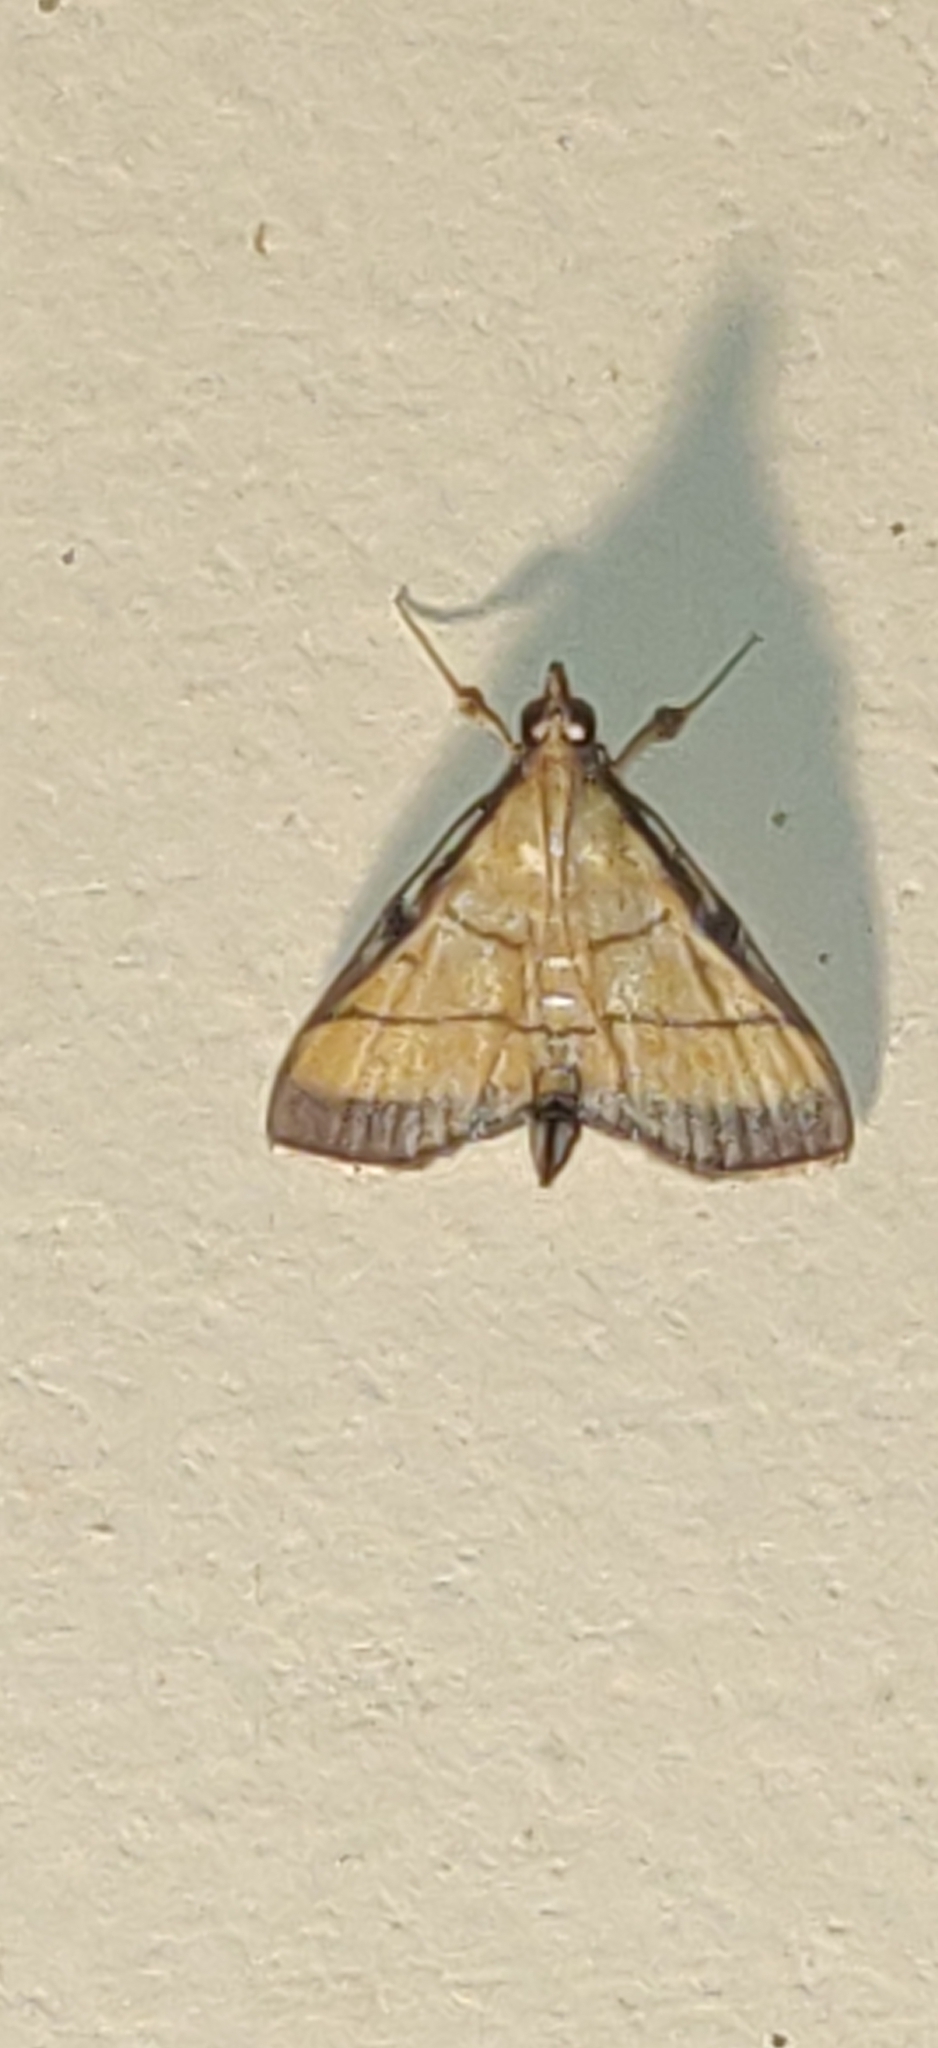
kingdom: Animalia
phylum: Arthropoda
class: Insecta
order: Lepidoptera
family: Crambidae
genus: Cnaphalocrocis
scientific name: Cnaphalocrocis medinalis
